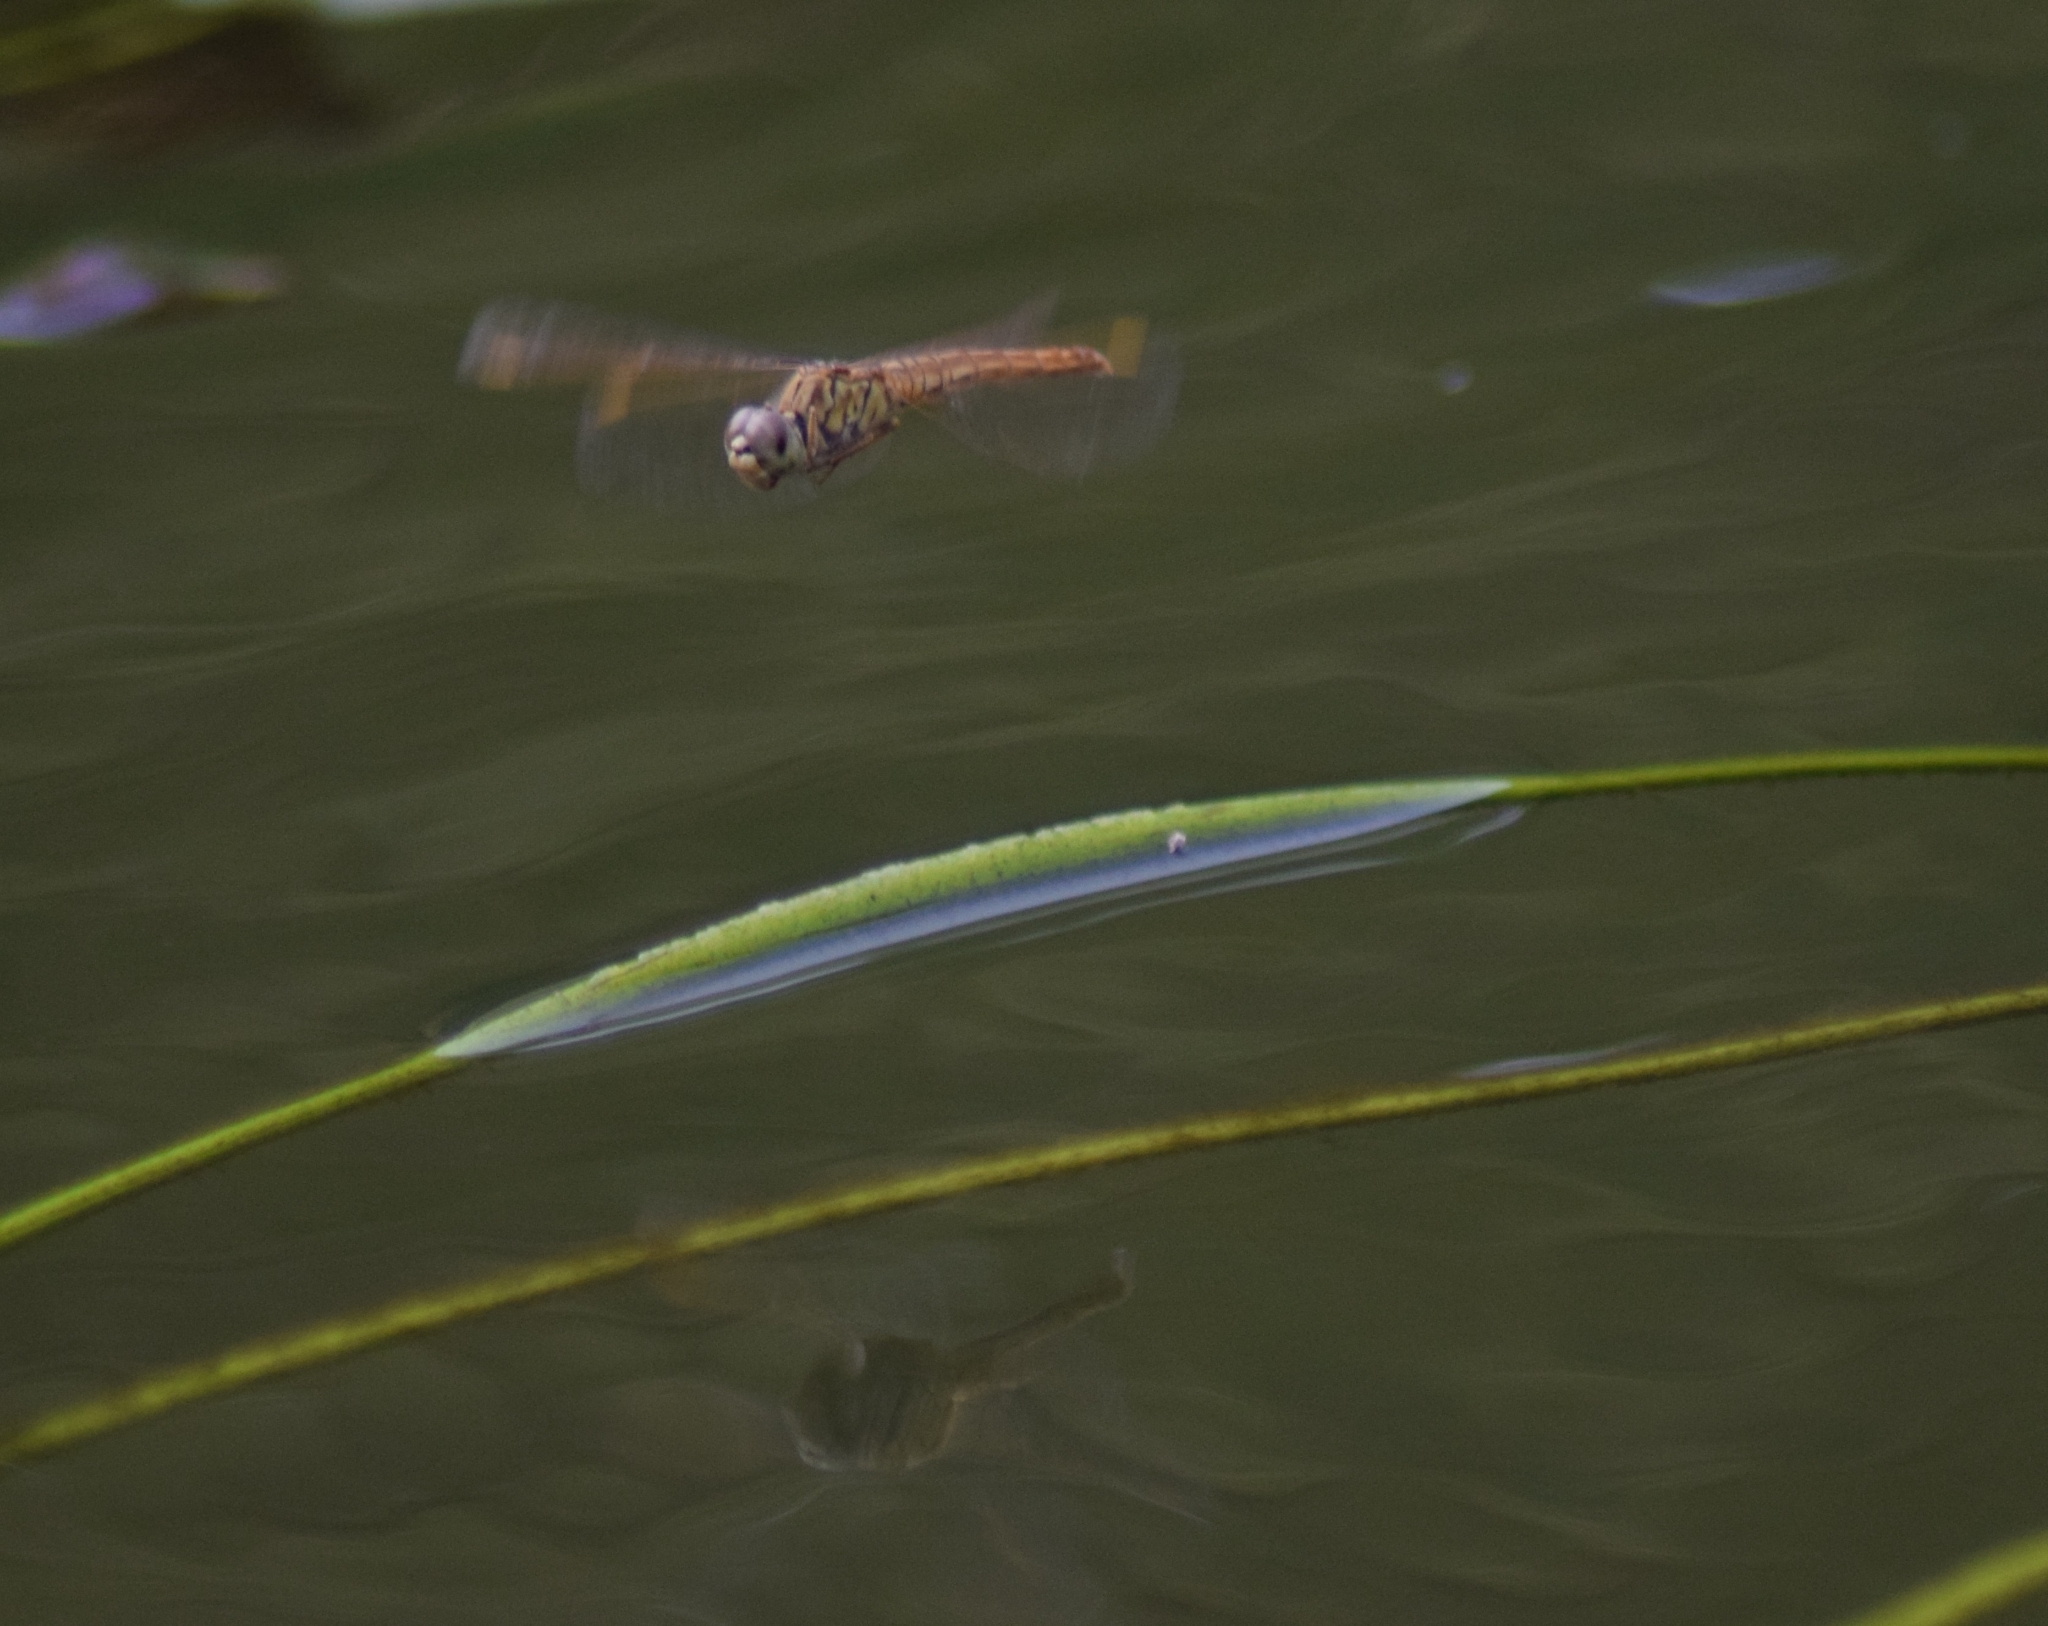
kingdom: Animalia
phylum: Arthropoda
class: Insecta
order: Odonata
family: Libellulidae
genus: Brachythemis
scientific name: Brachythemis contaminata
